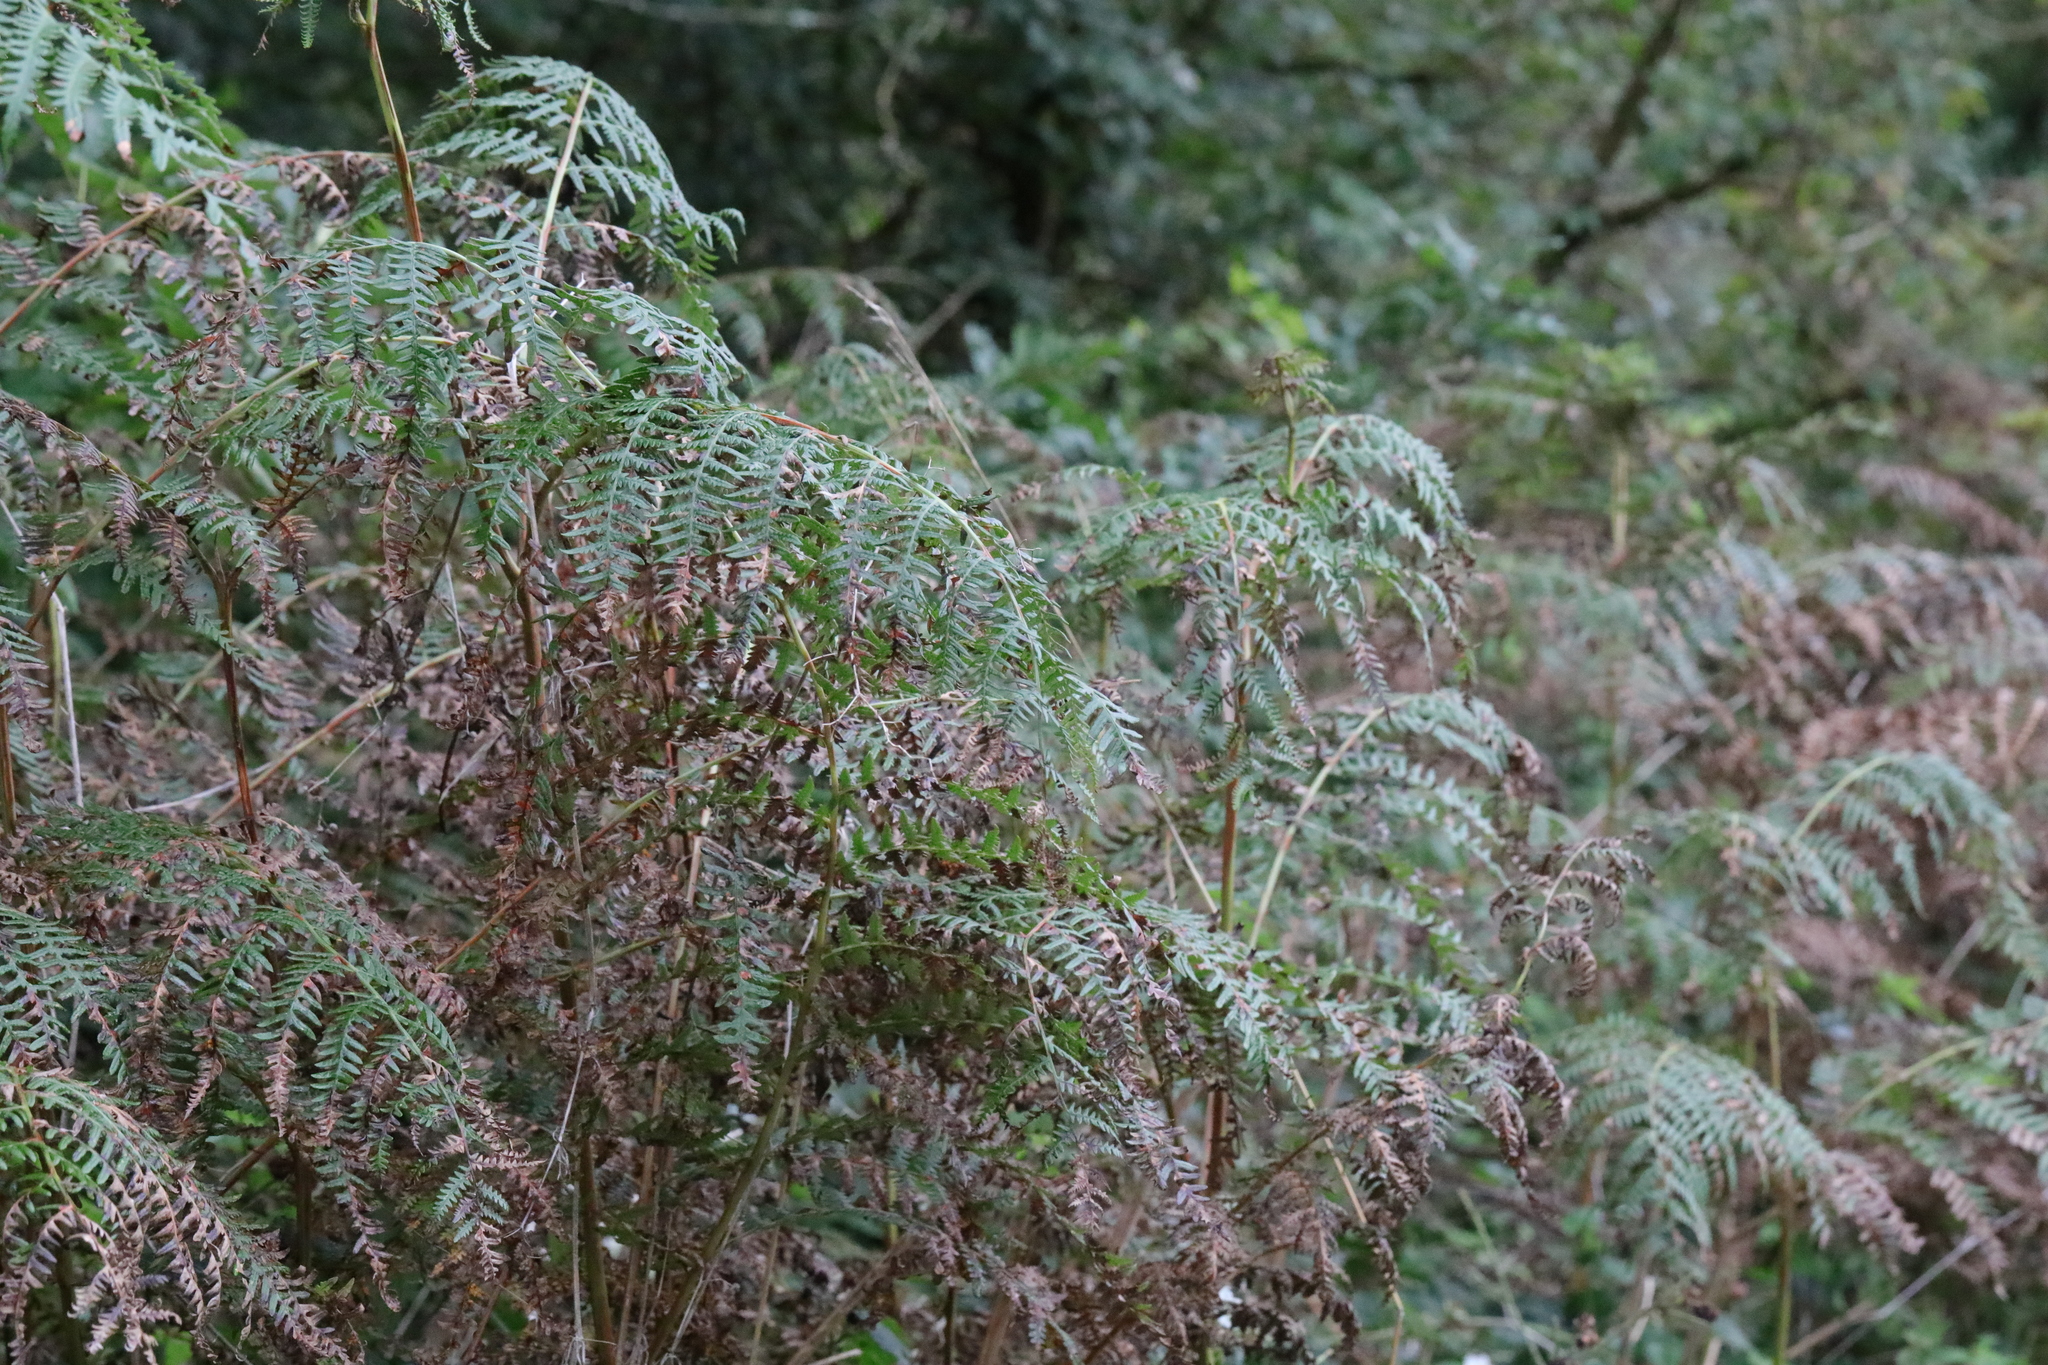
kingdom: Plantae
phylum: Tracheophyta
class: Polypodiopsida
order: Polypodiales
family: Dennstaedtiaceae
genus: Pteridium
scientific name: Pteridium aquilinum
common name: Bracken
